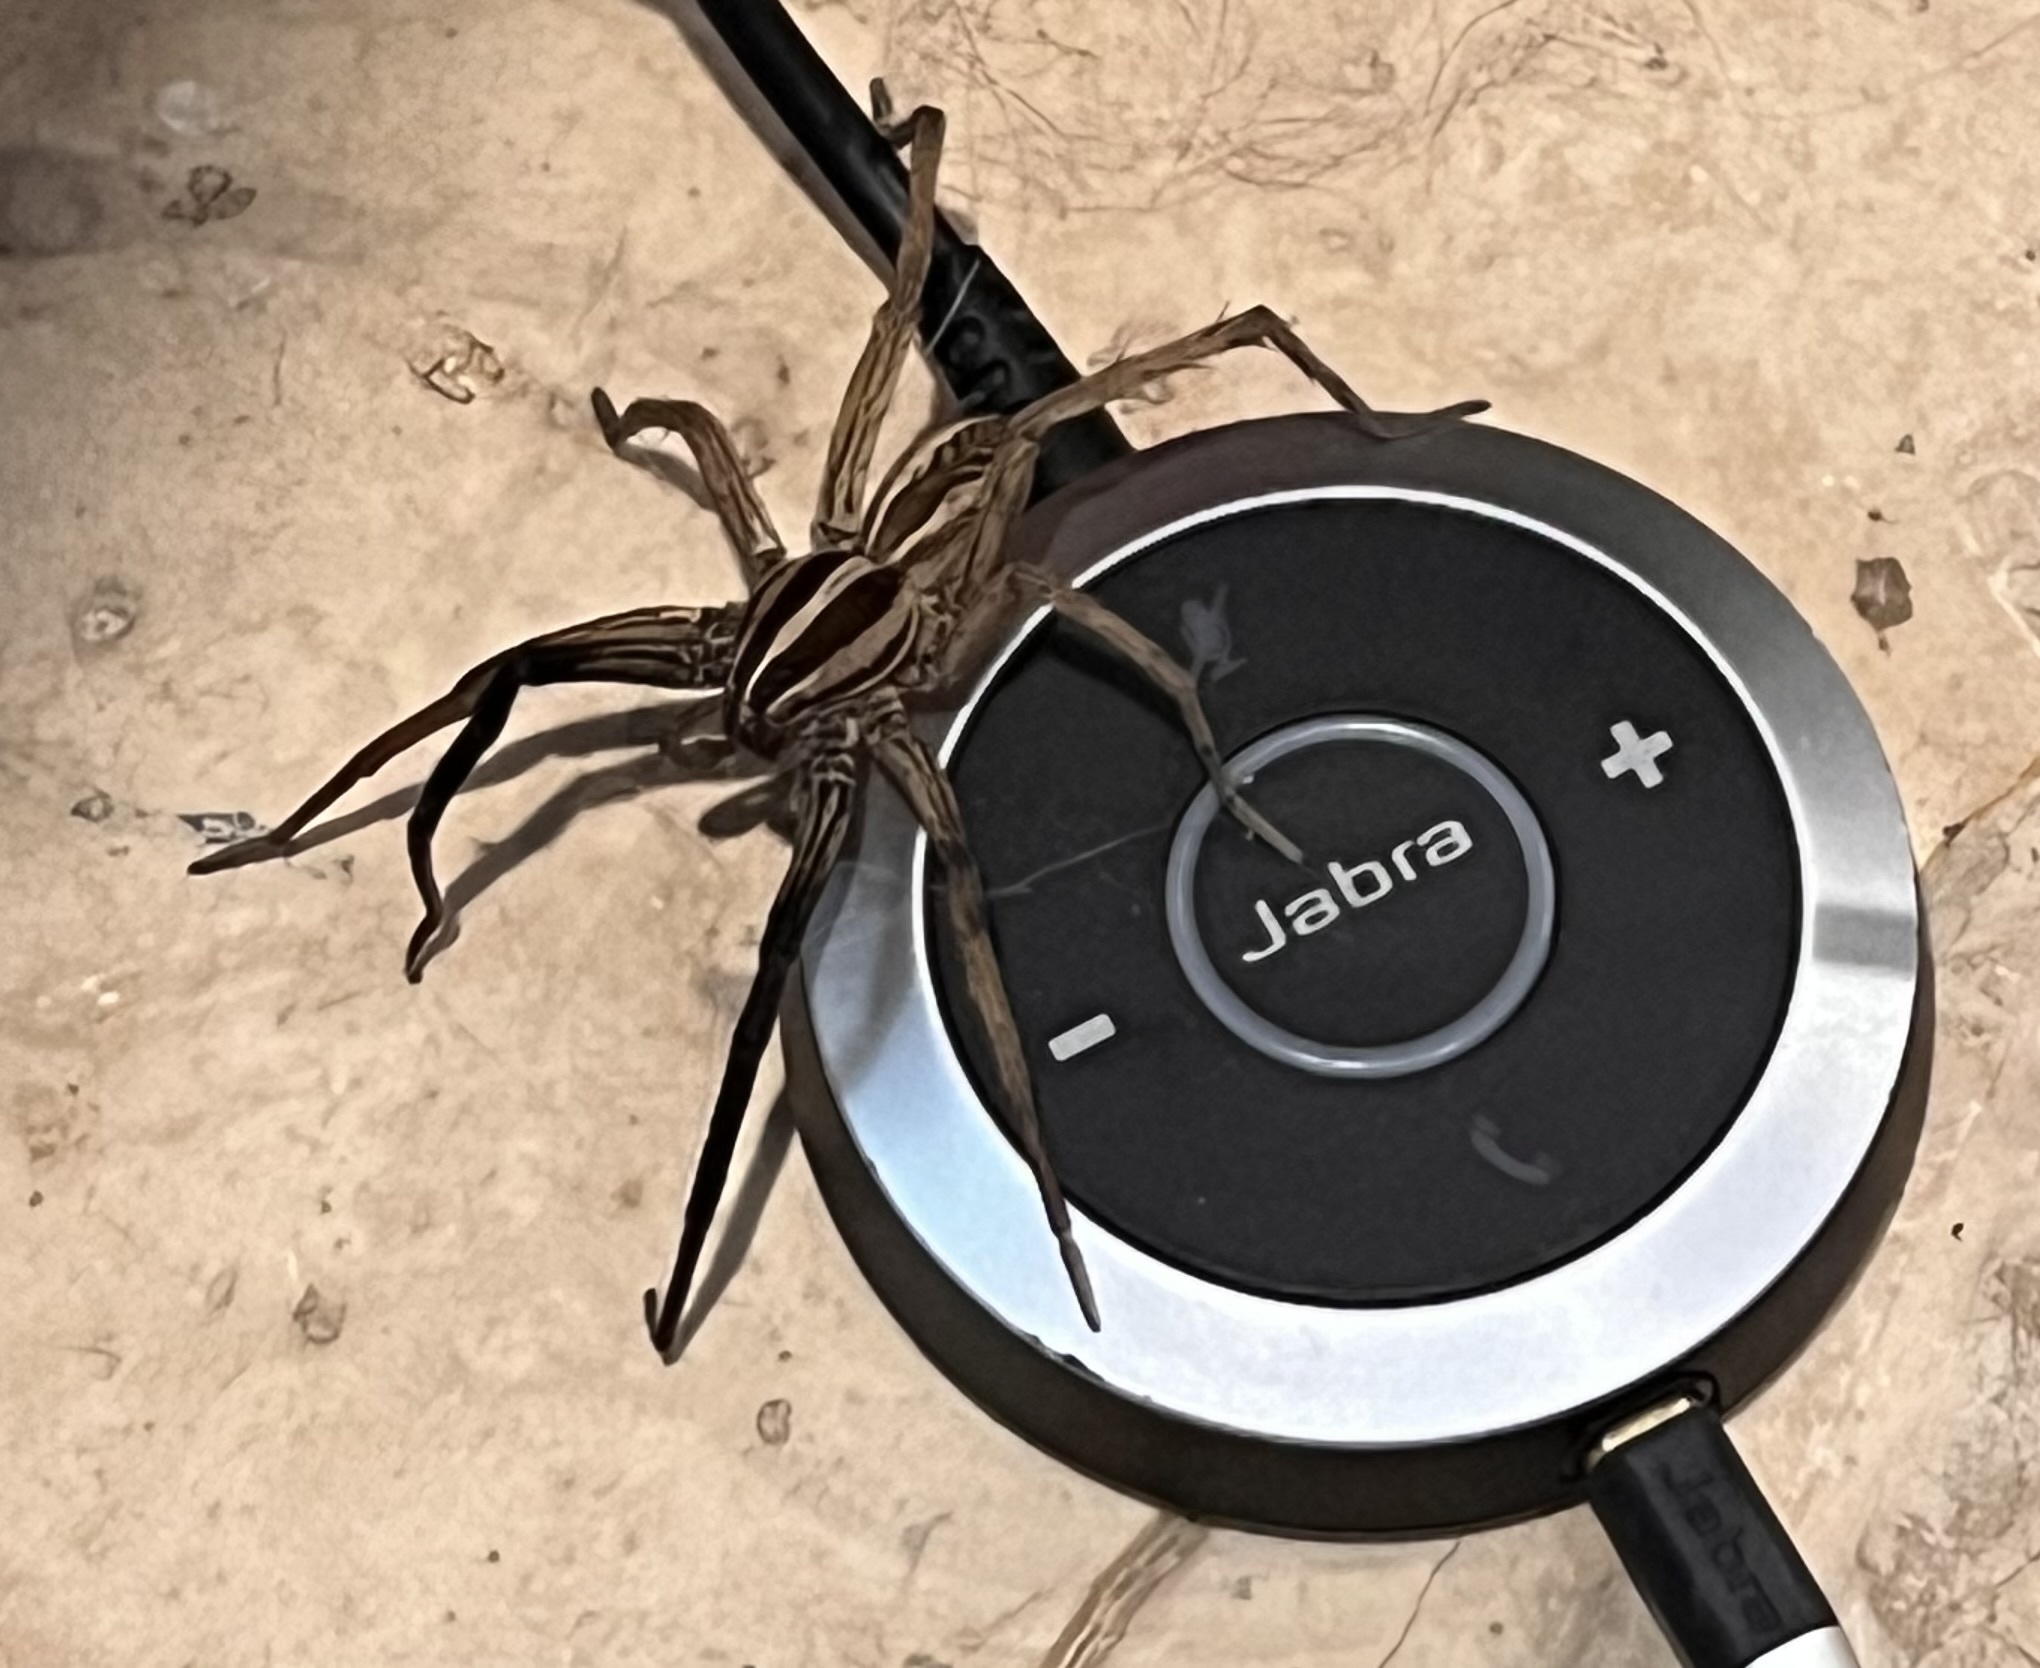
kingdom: Animalia
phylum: Arthropoda
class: Arachnida
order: Araneae
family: Lycosidae
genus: Rabidosa
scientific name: Rabidosa rabida
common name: Rabid wolf spider
